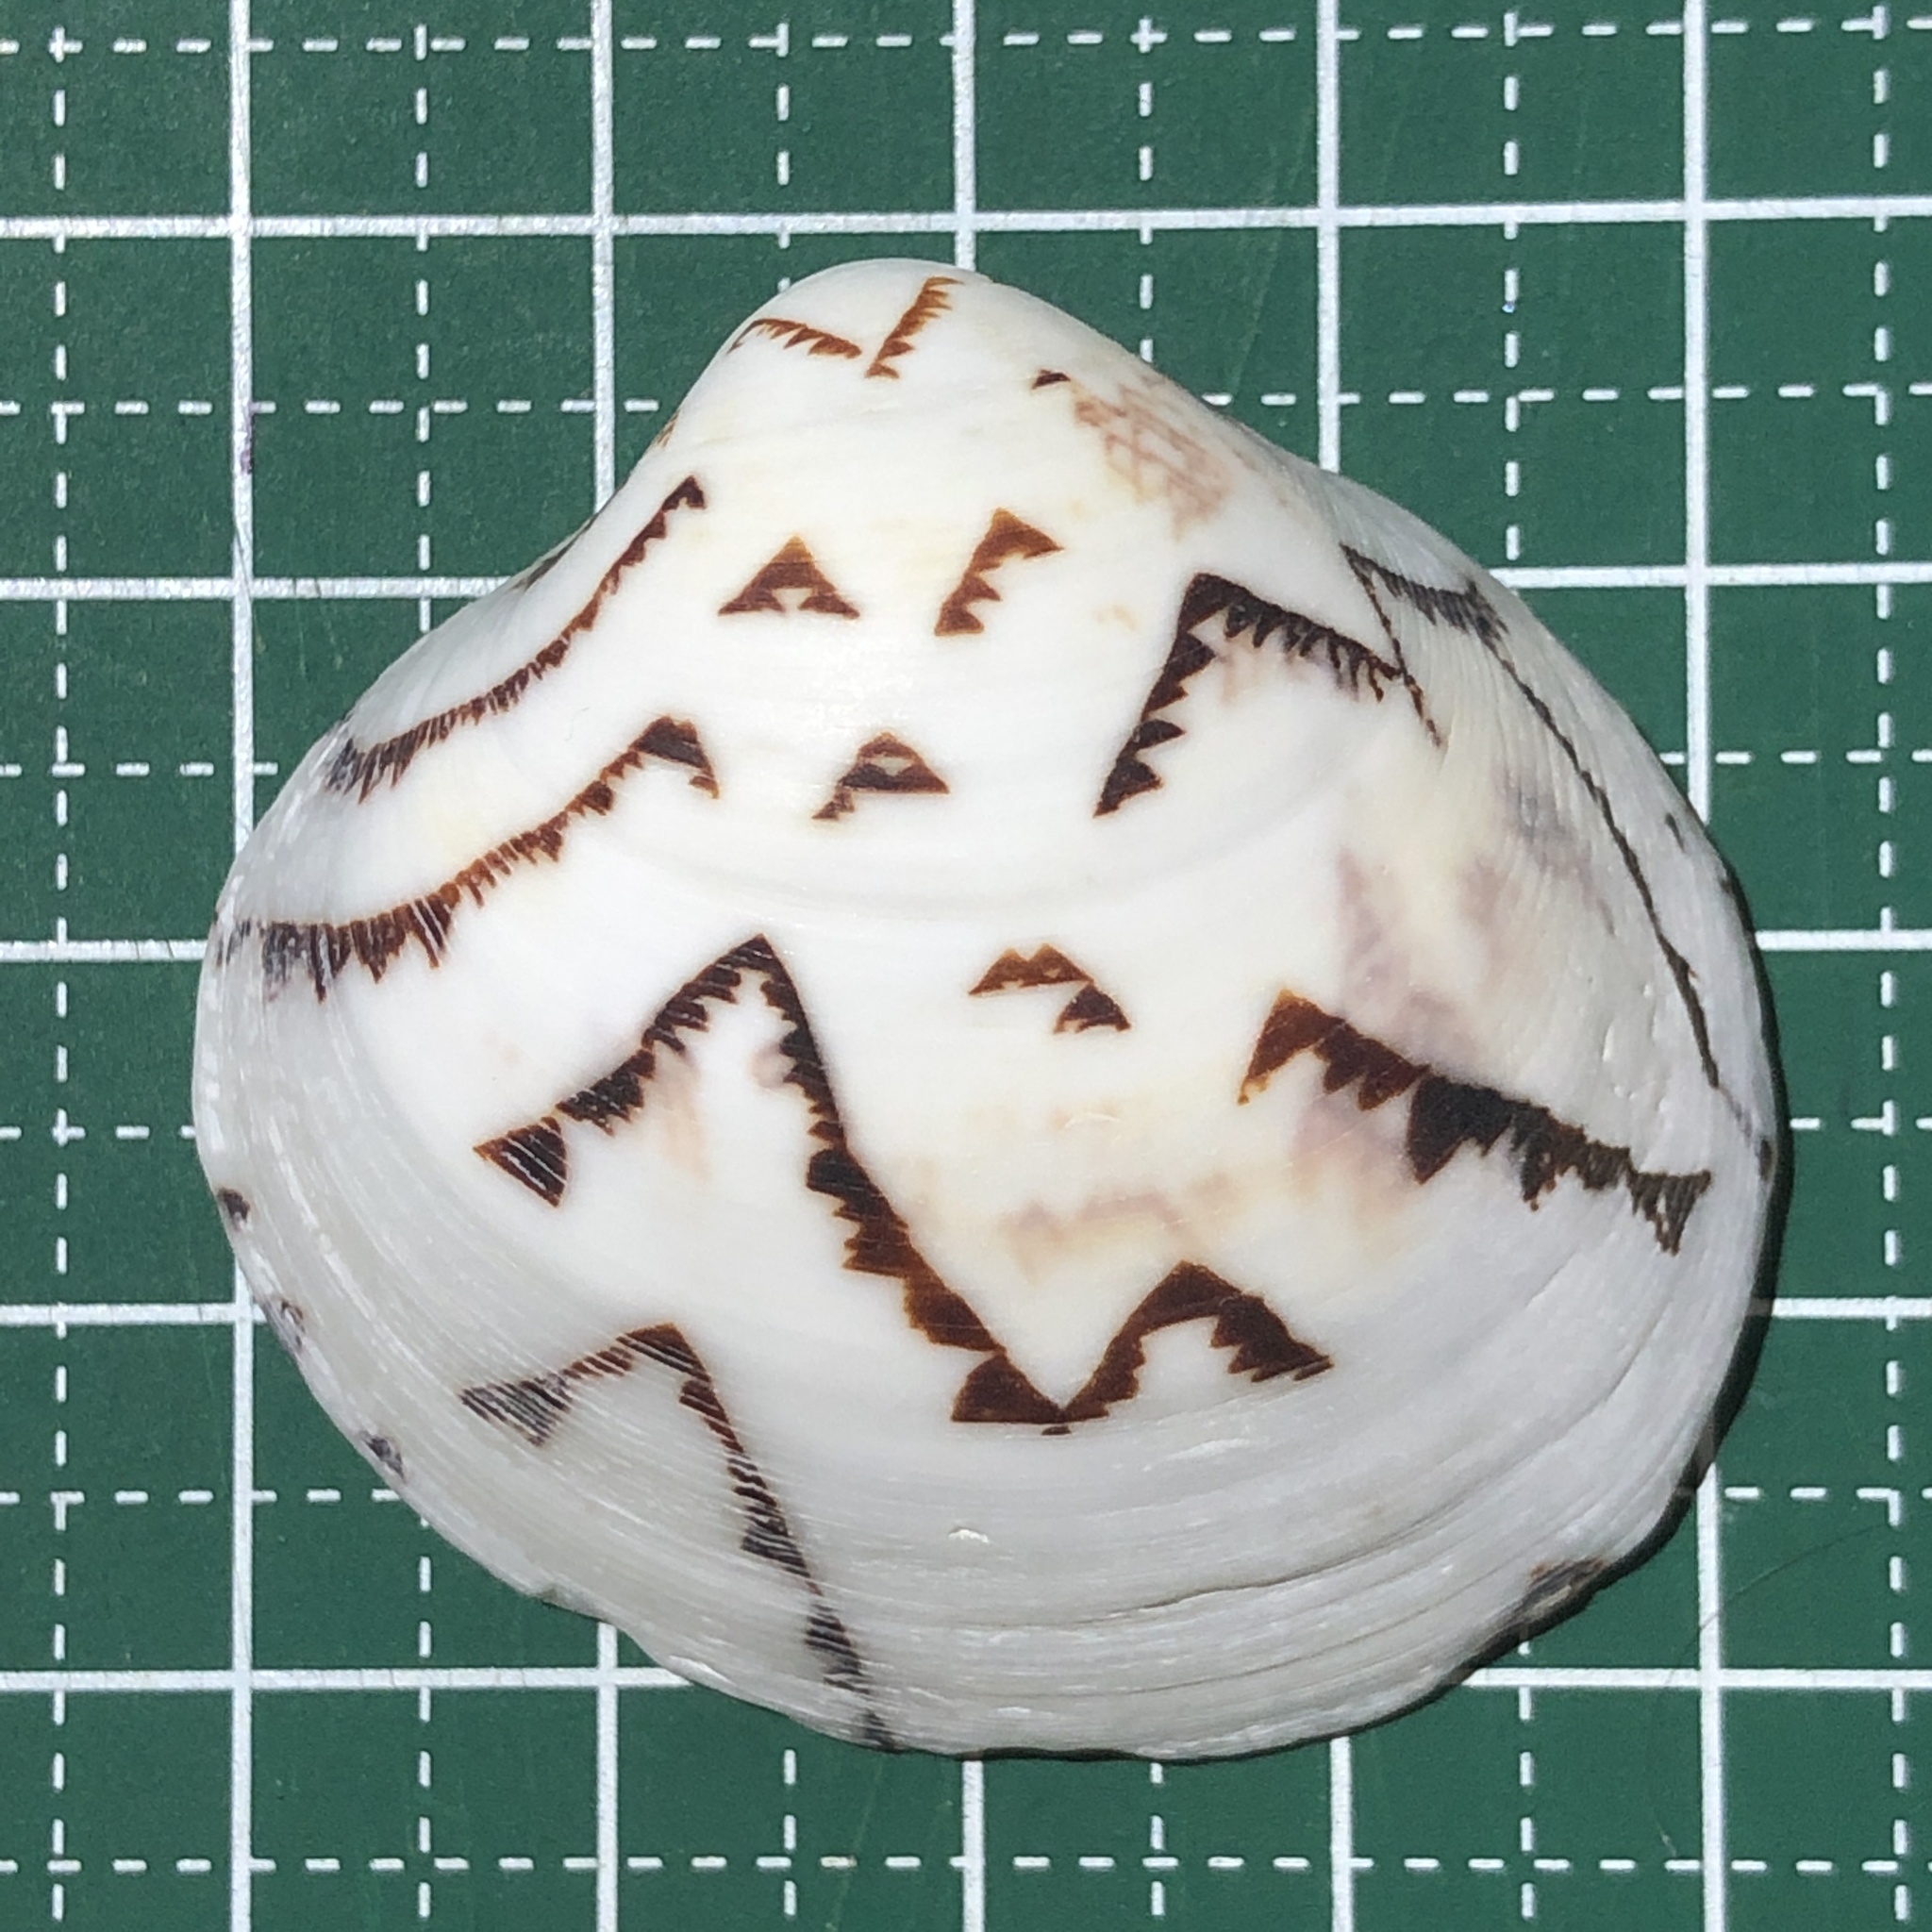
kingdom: Animalia
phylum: Mollusca
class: Bivalvia
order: Venerida
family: Veneridae
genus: Lioconcha
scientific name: Lioconcha castrensis
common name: Camp pitar-venus
